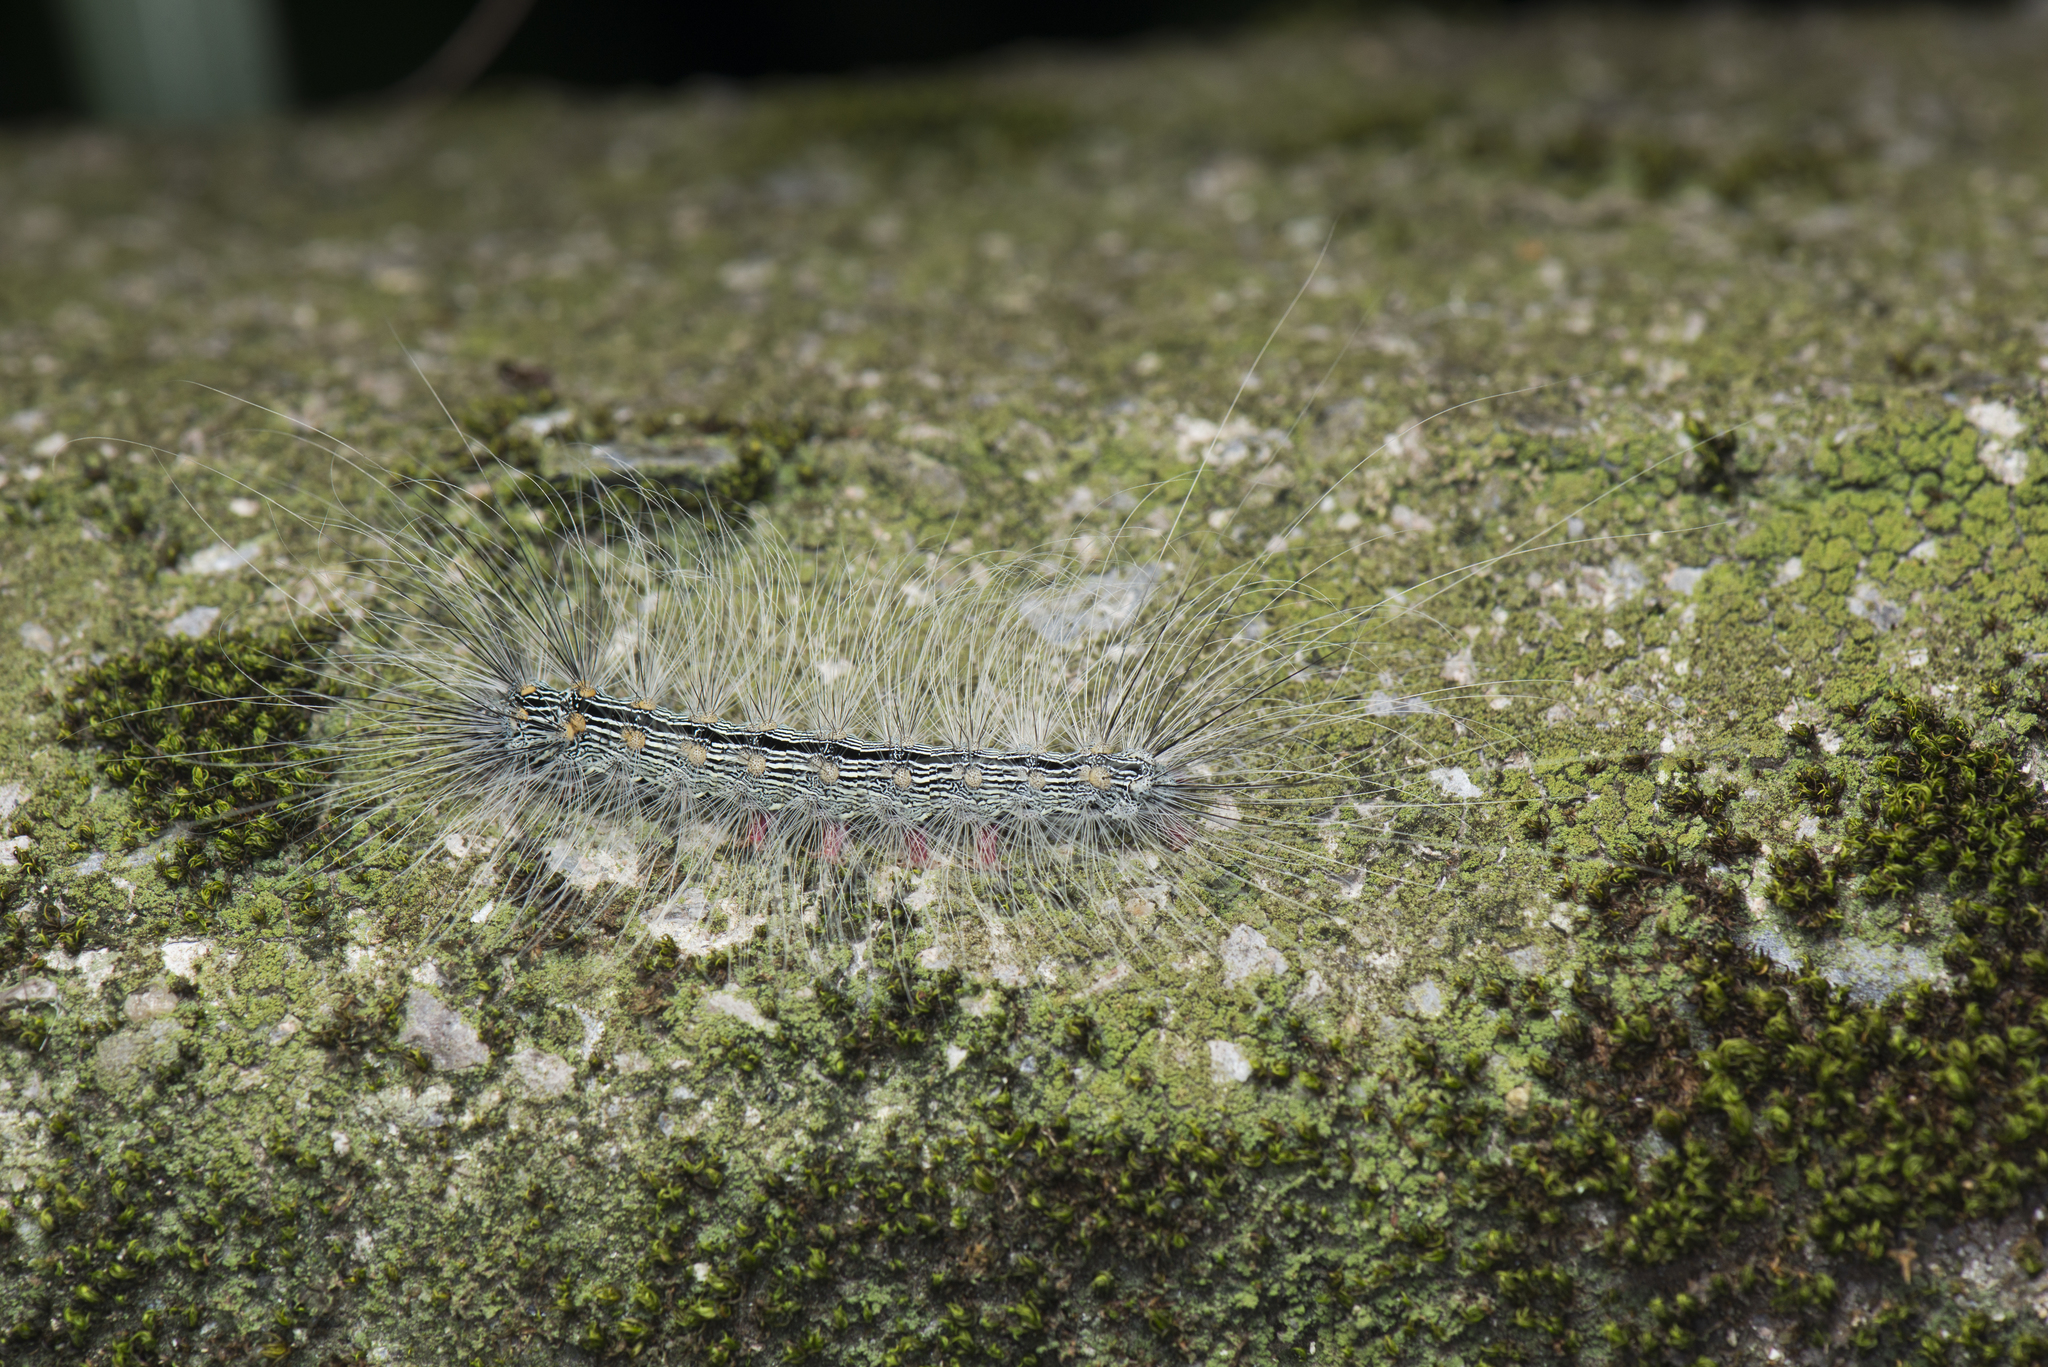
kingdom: Animalia
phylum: Arthropoda
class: Insecta
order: Lepidoptera
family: Erebidae
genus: Chrysaeglia
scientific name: Chrysaeglia magnifica
